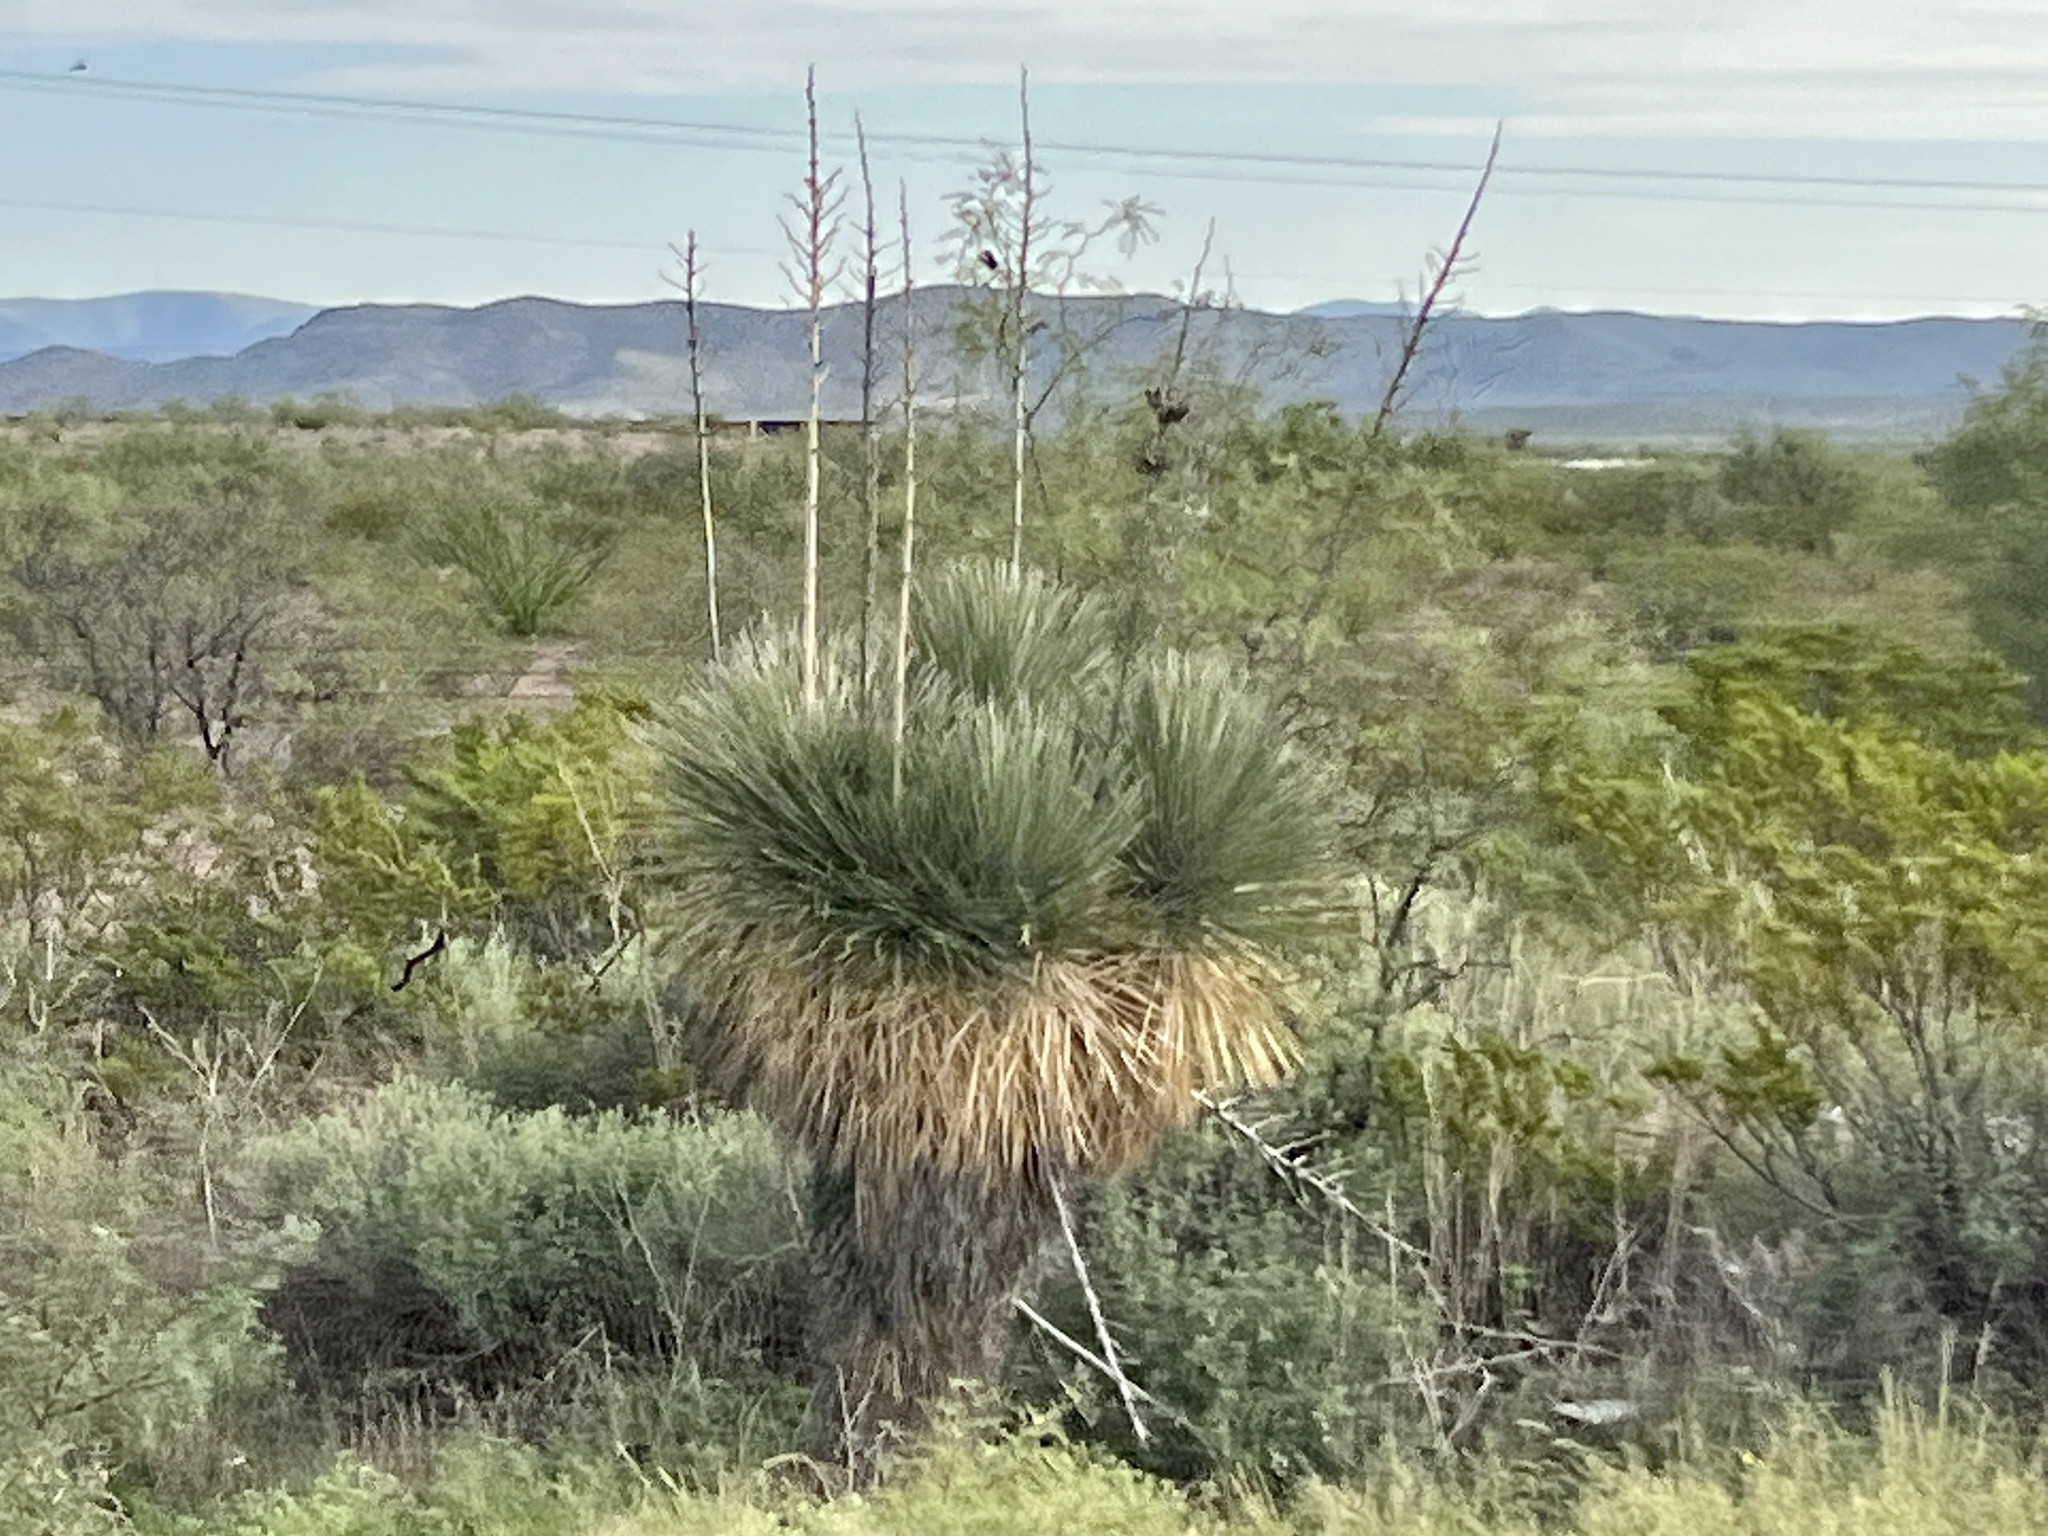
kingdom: Plantae
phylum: Tracheophyta
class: Liliopsida
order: Asparagales
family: Asparagaceae
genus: Yucca
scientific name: Yucca elata
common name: Palmella
